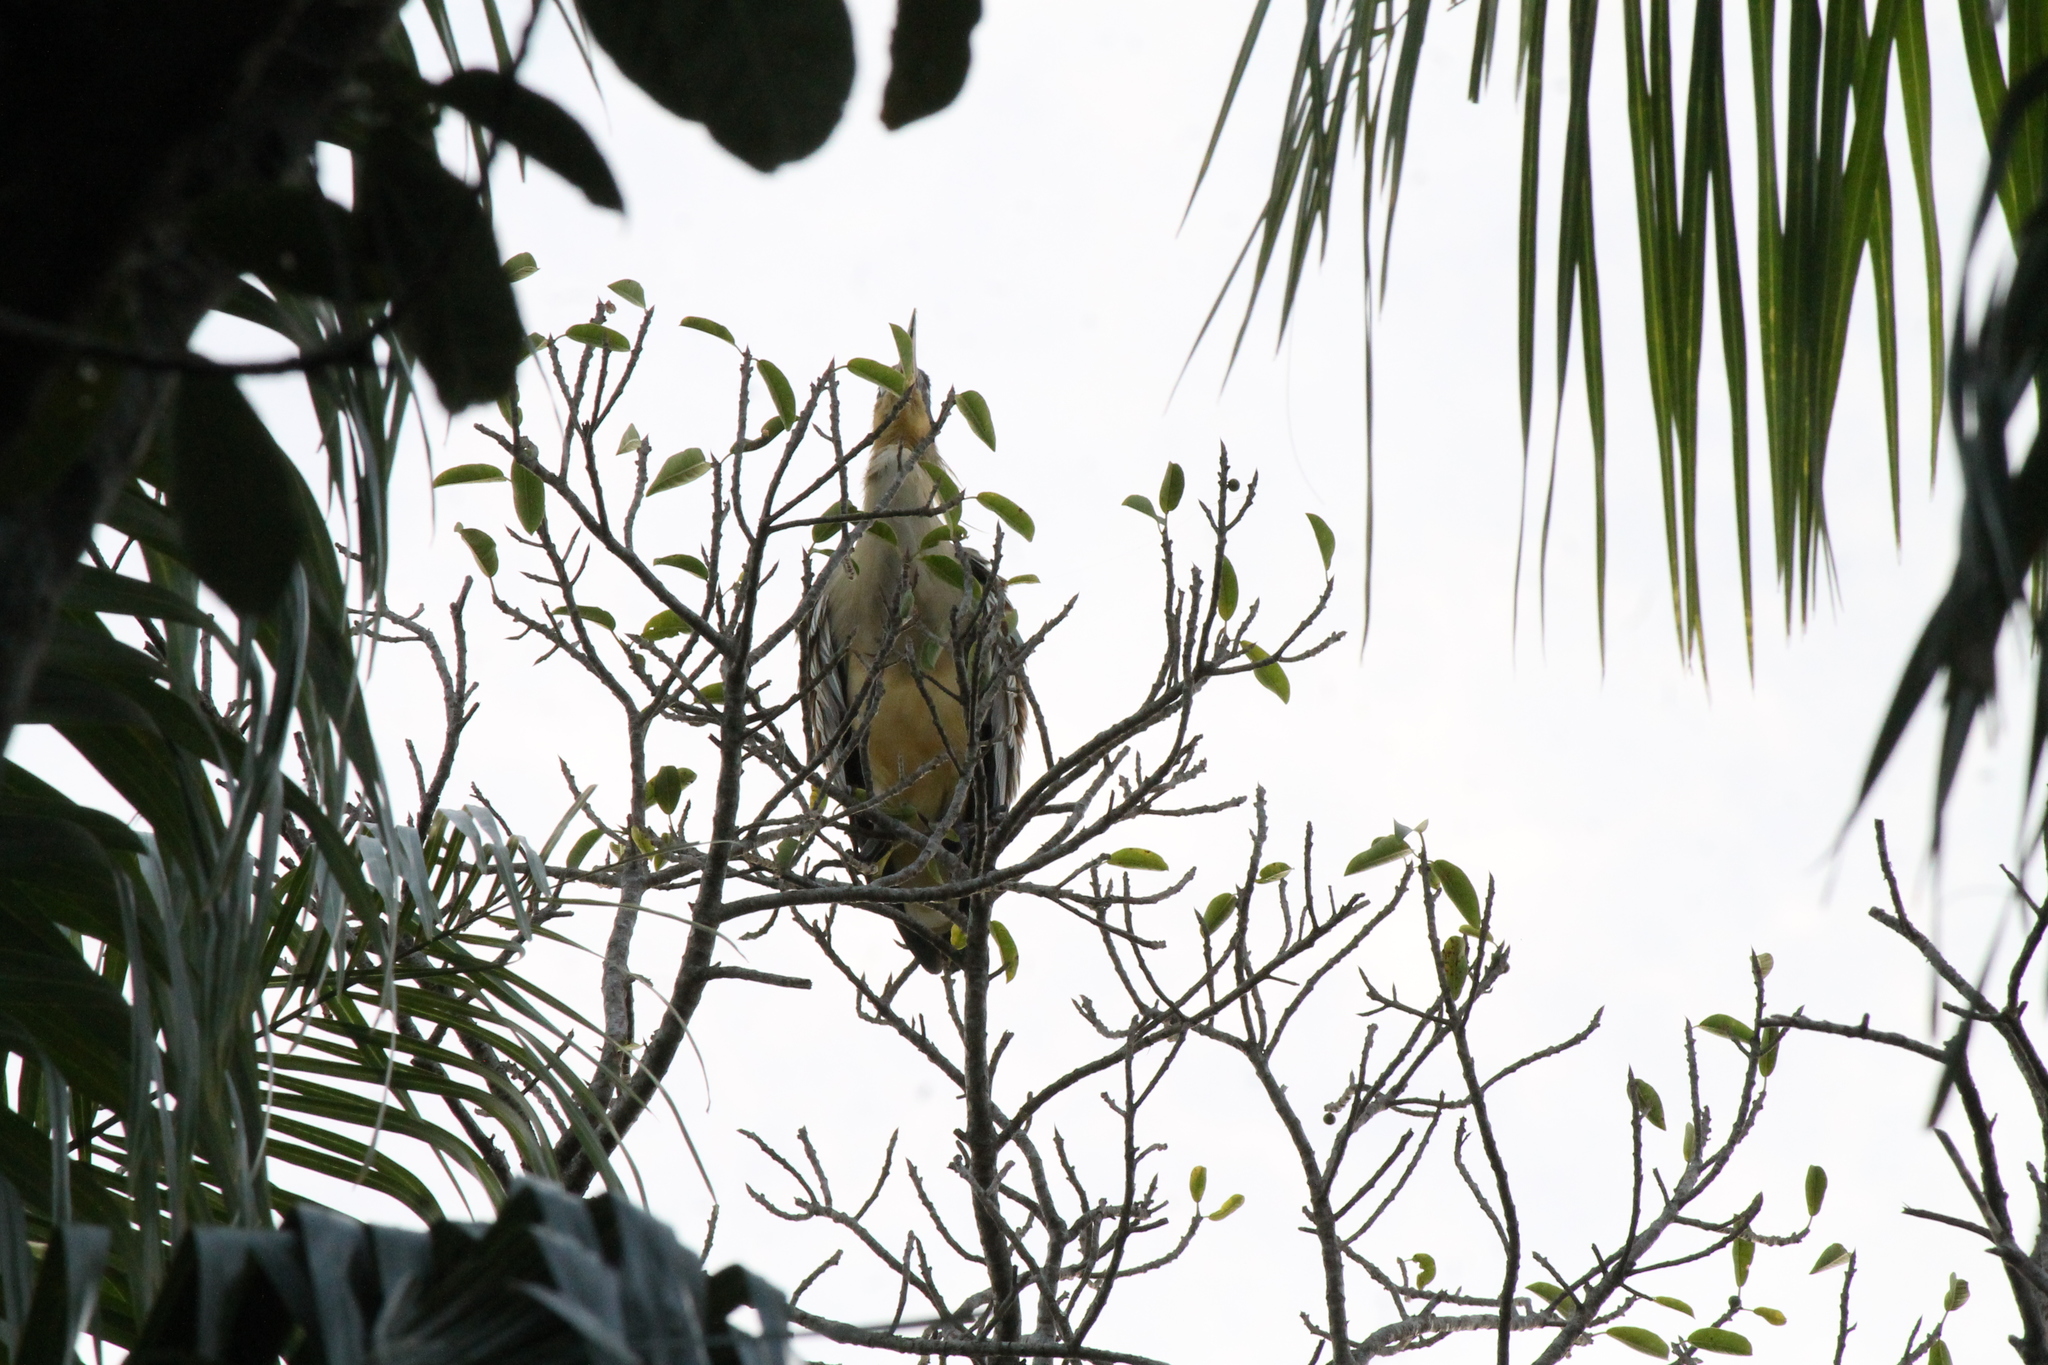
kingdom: Animalia
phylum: Chordata
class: Aves
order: Pelecaniformes
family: Ardeidae
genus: Syrigma
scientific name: Syrigma sibilatrix
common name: Whistling heron
